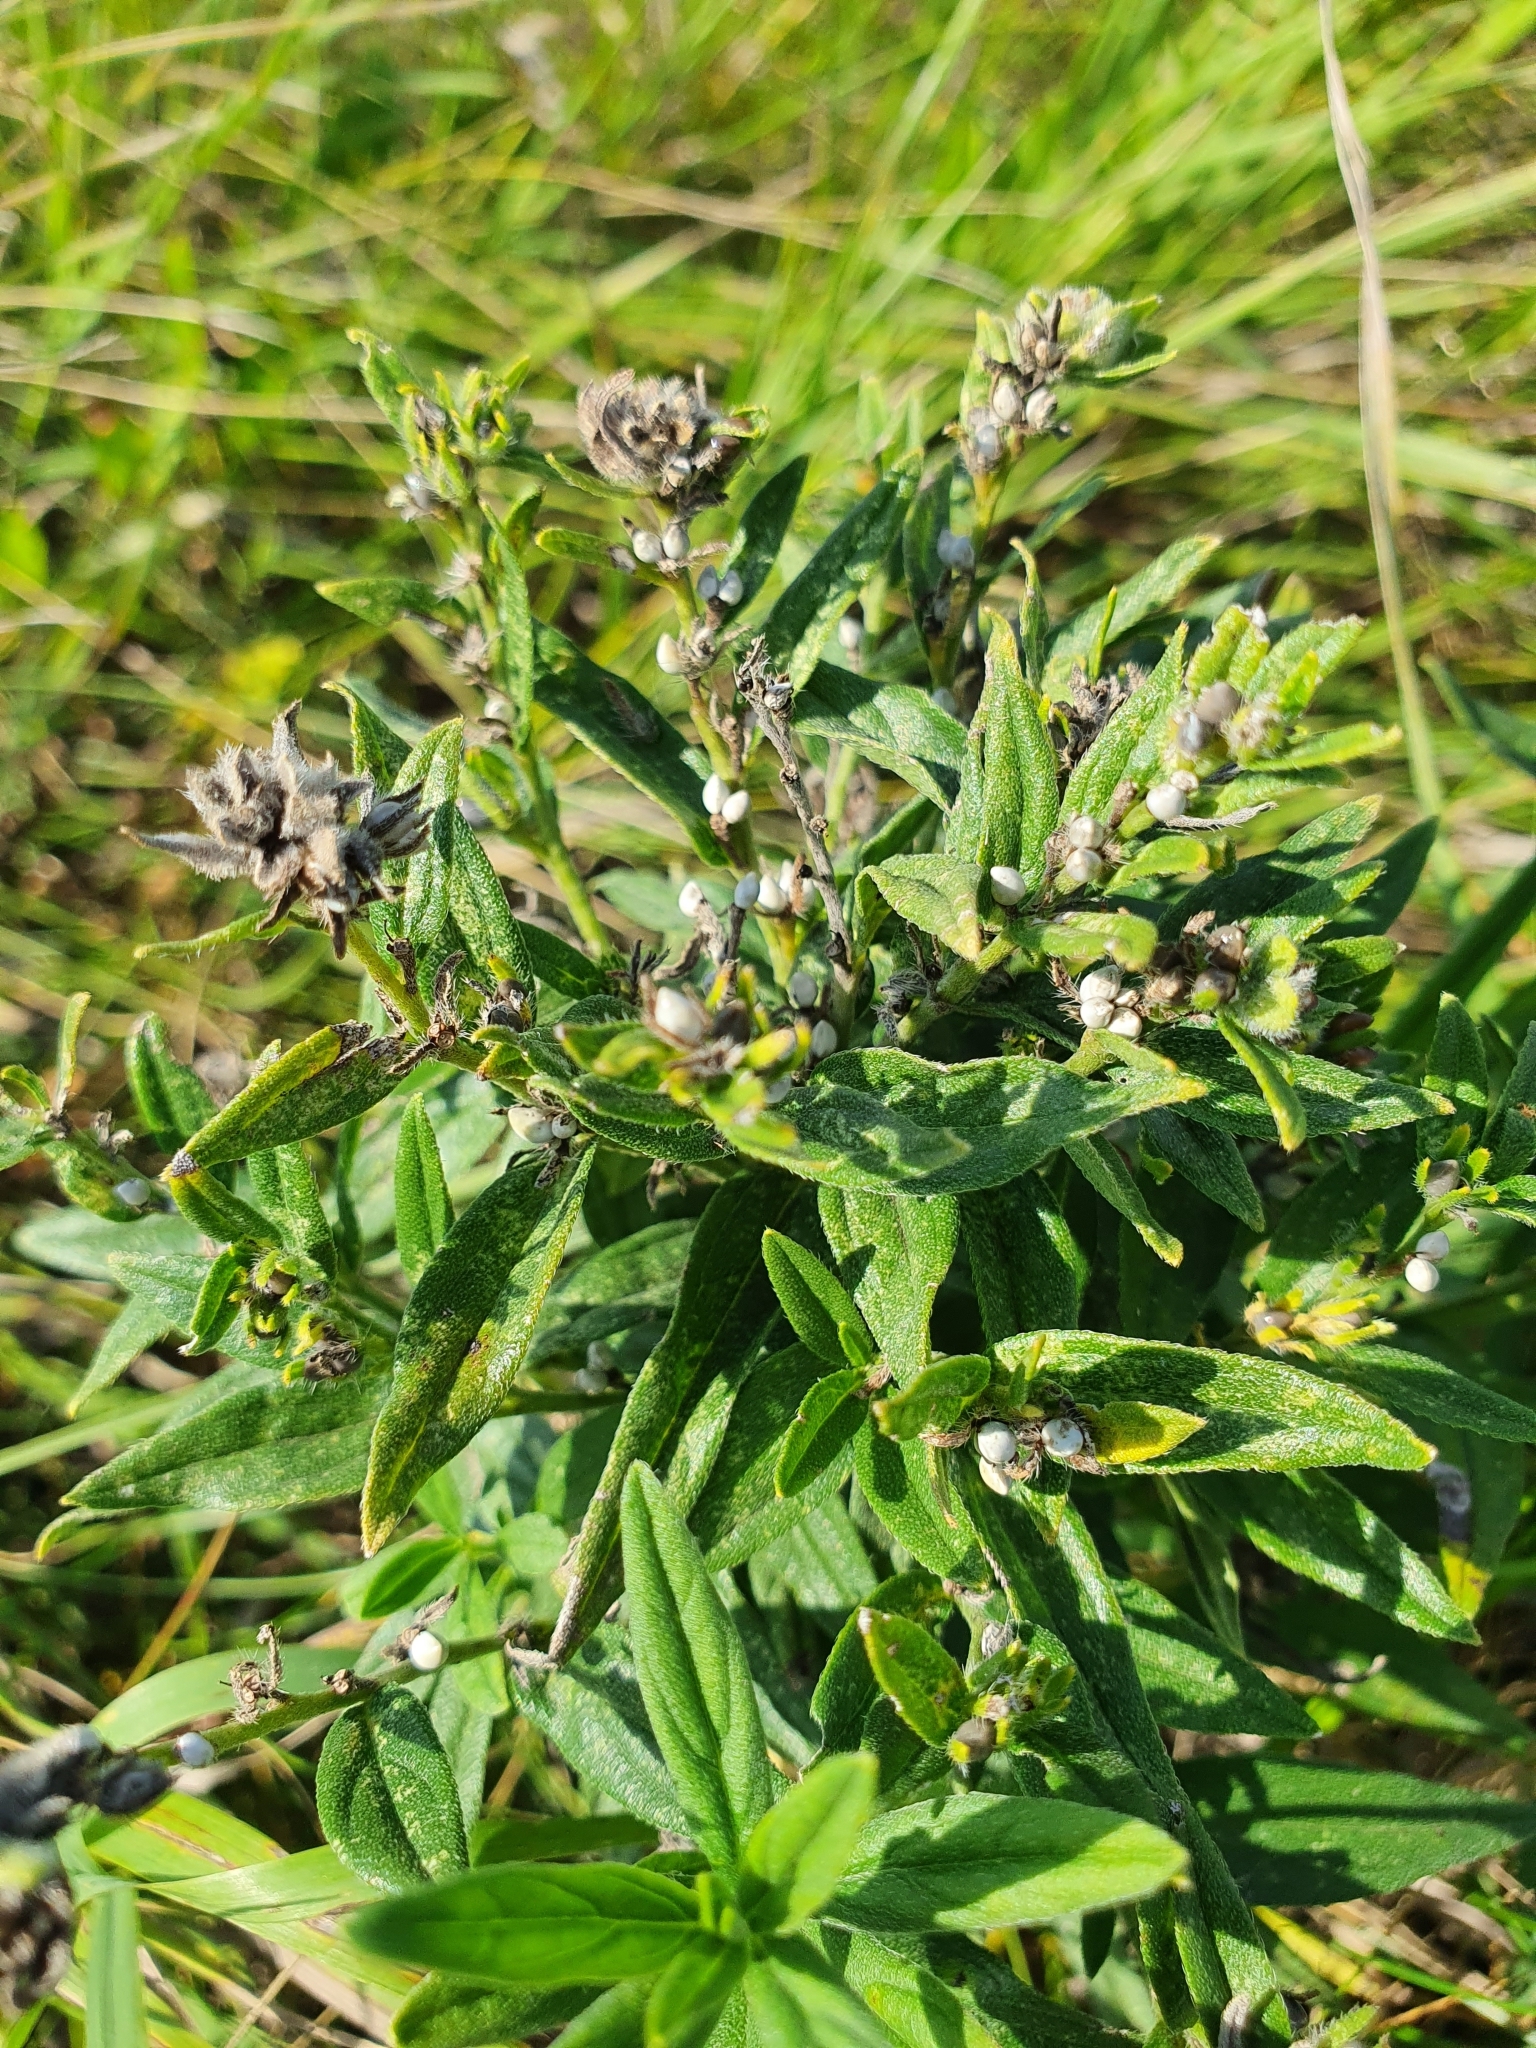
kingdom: Plantae
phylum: Tracheophyta
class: Magnoliopsida
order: Boraginales
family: Boraginaceae
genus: Lithospermum
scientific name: Lithospermum officinale
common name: Common gromwell
